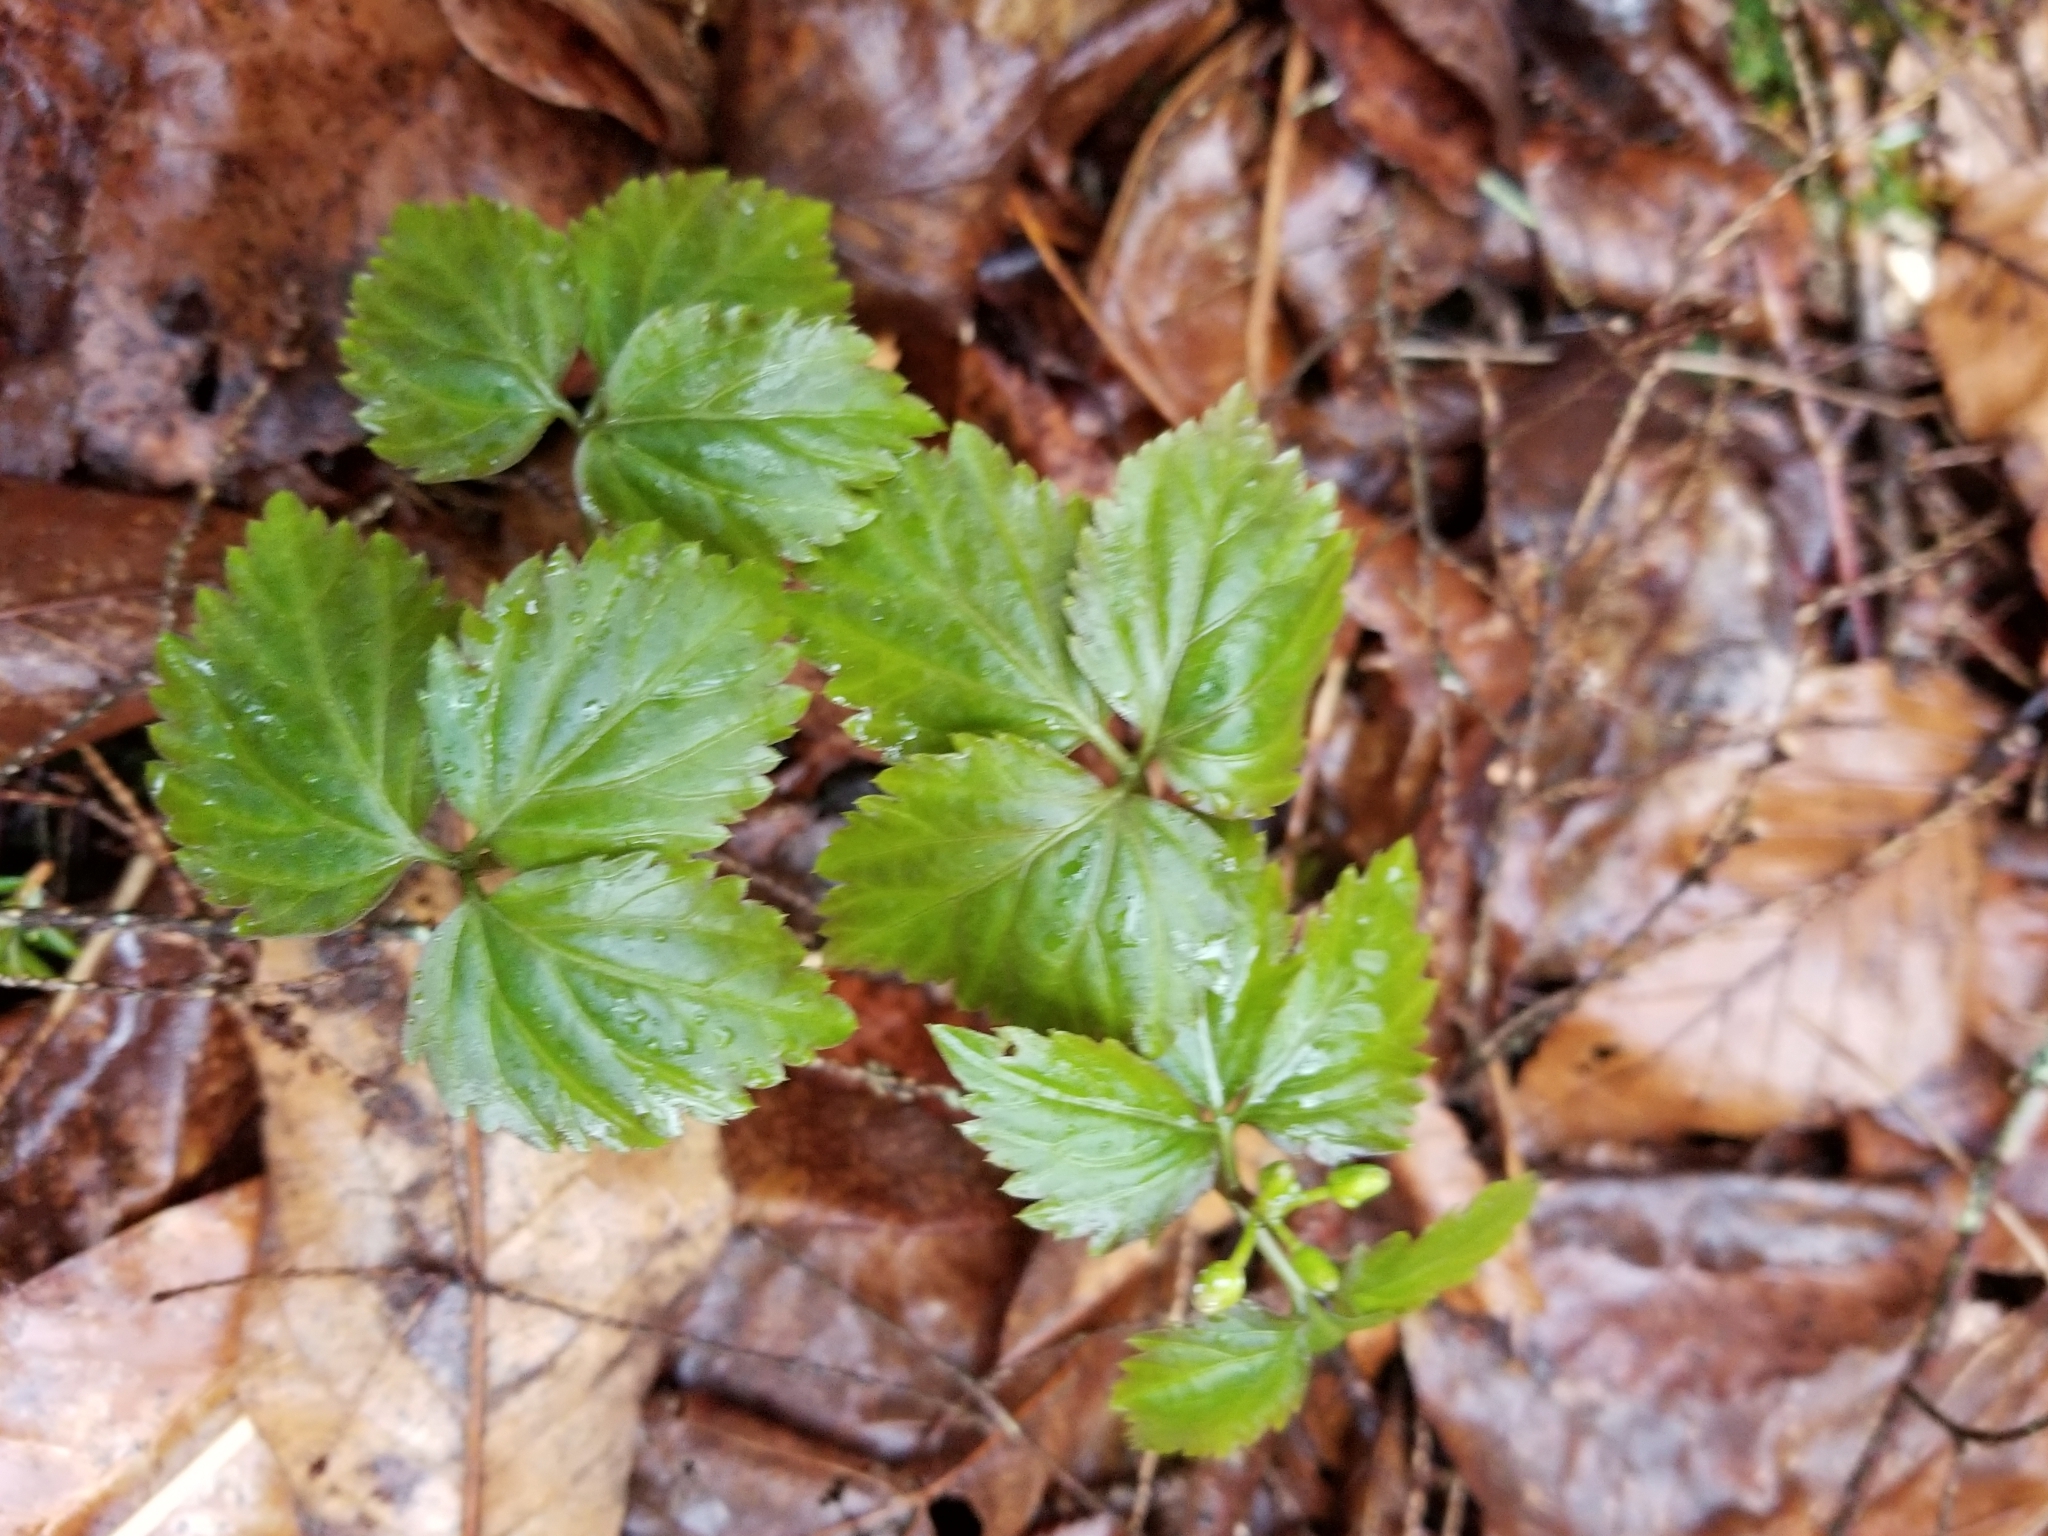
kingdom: Plantae
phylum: Tracheophyta
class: Magnoliopsida
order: Brassicales
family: Brassicaceae
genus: Cardamine
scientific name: Cardamine diphylla
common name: Broad-leaved toothwort
